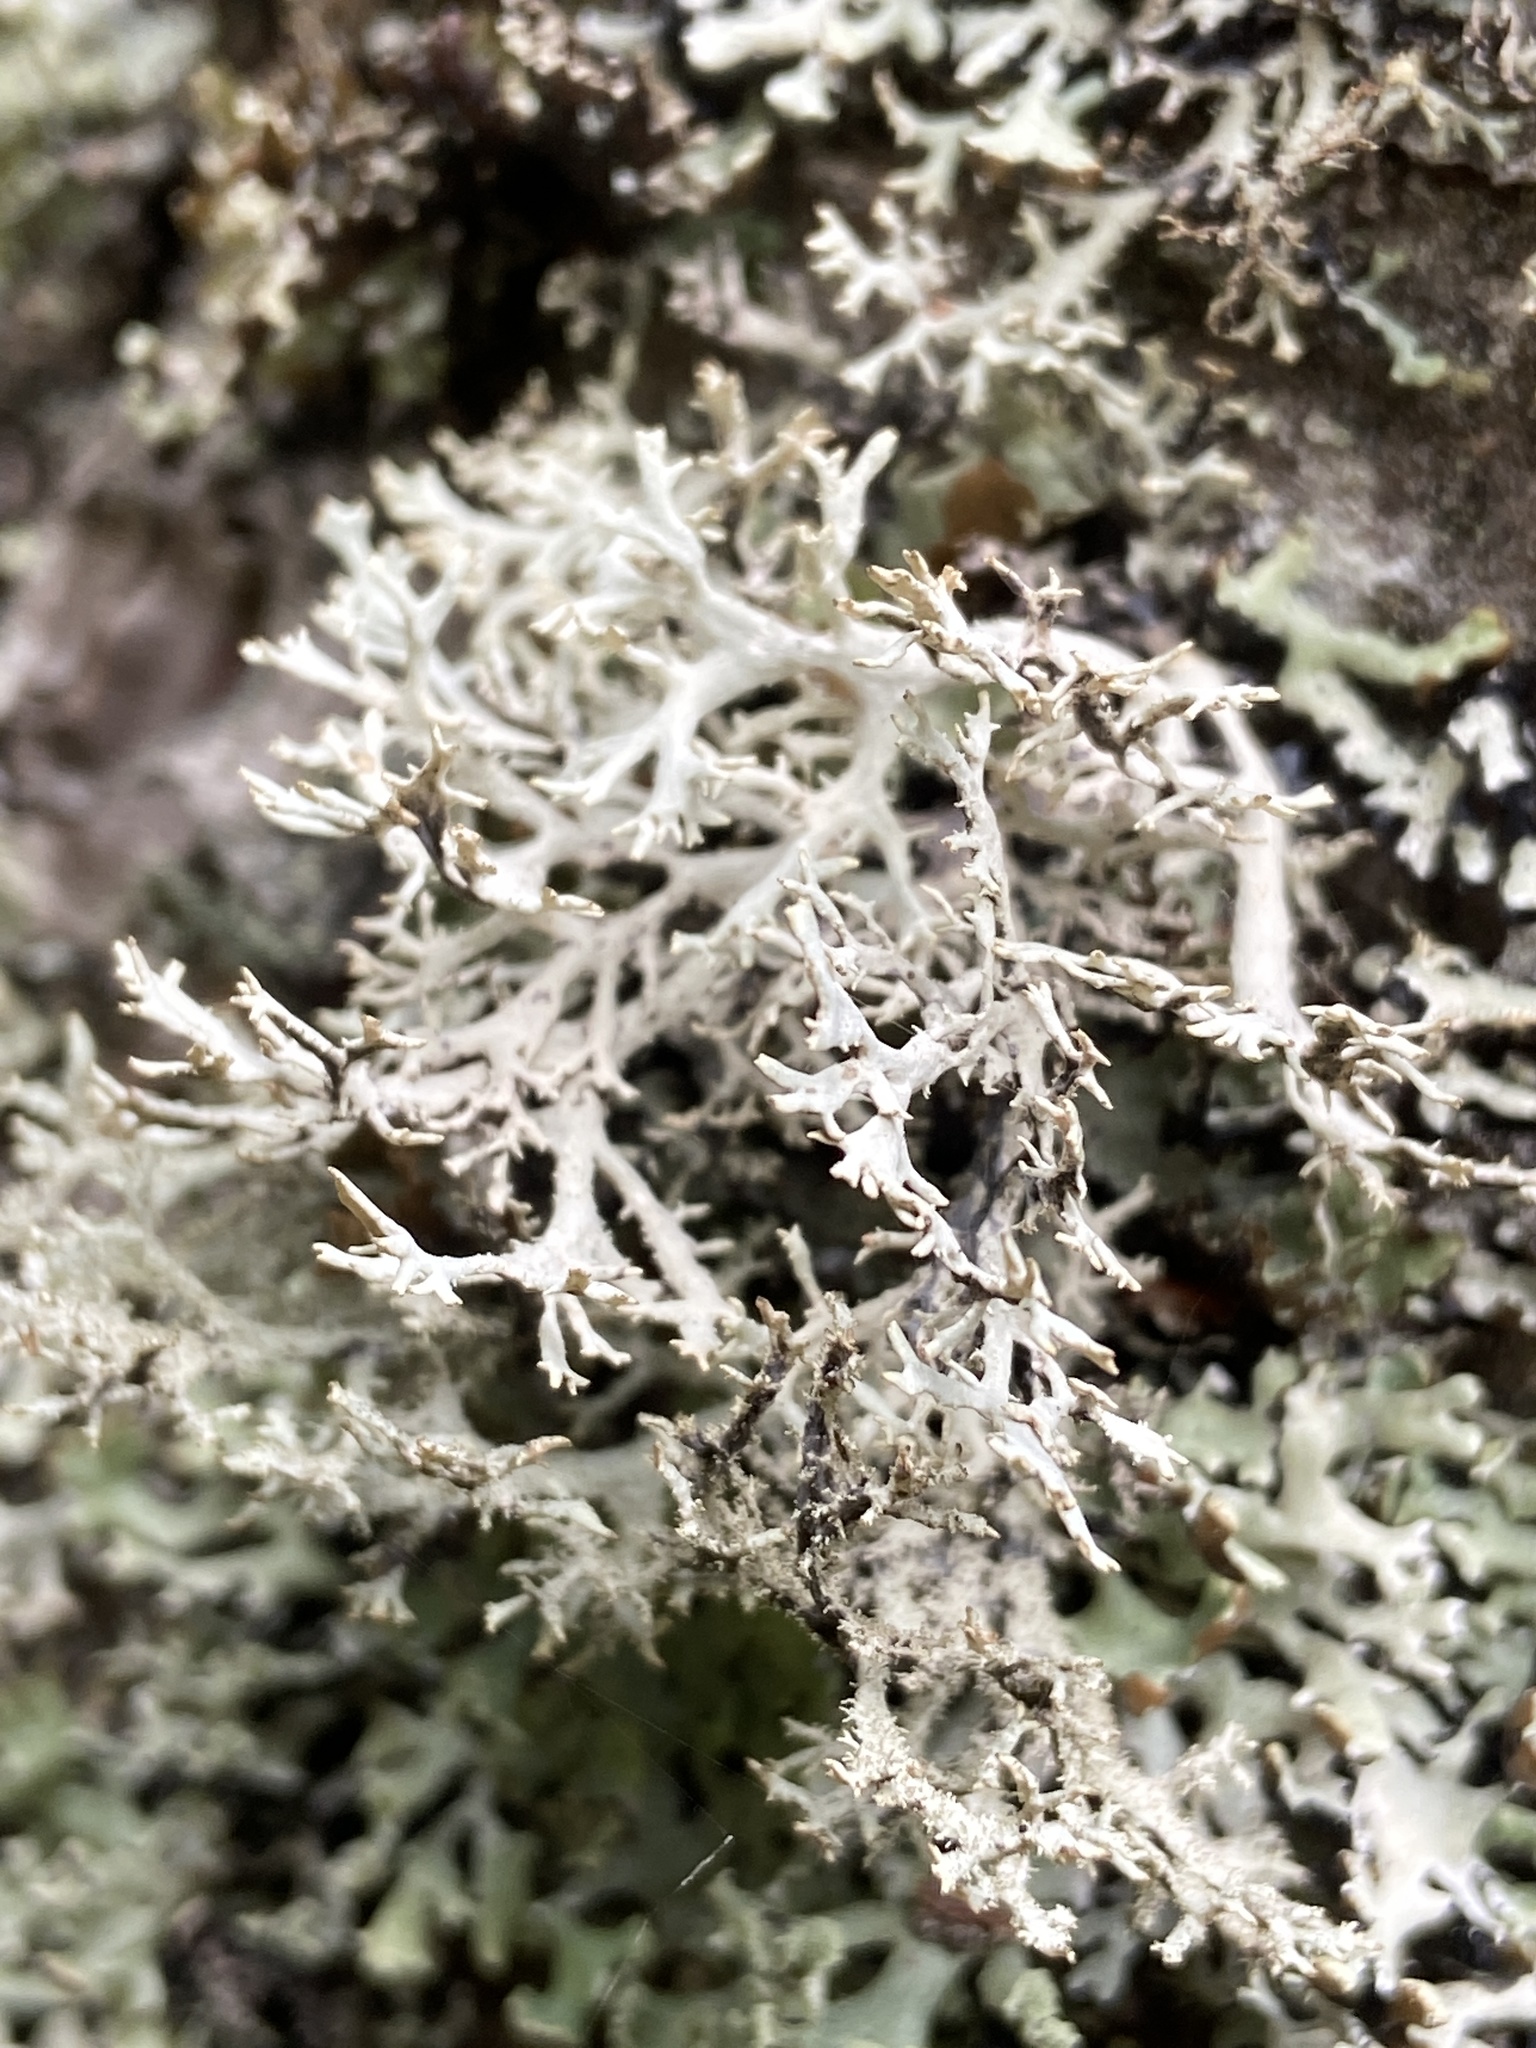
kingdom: Fungi
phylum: Ascomycota
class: Lecanoromycetes
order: Lecanorales
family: Parmeliaceae
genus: Pseudevernia
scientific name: Pseudevernia furfuracea
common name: Tree moss
